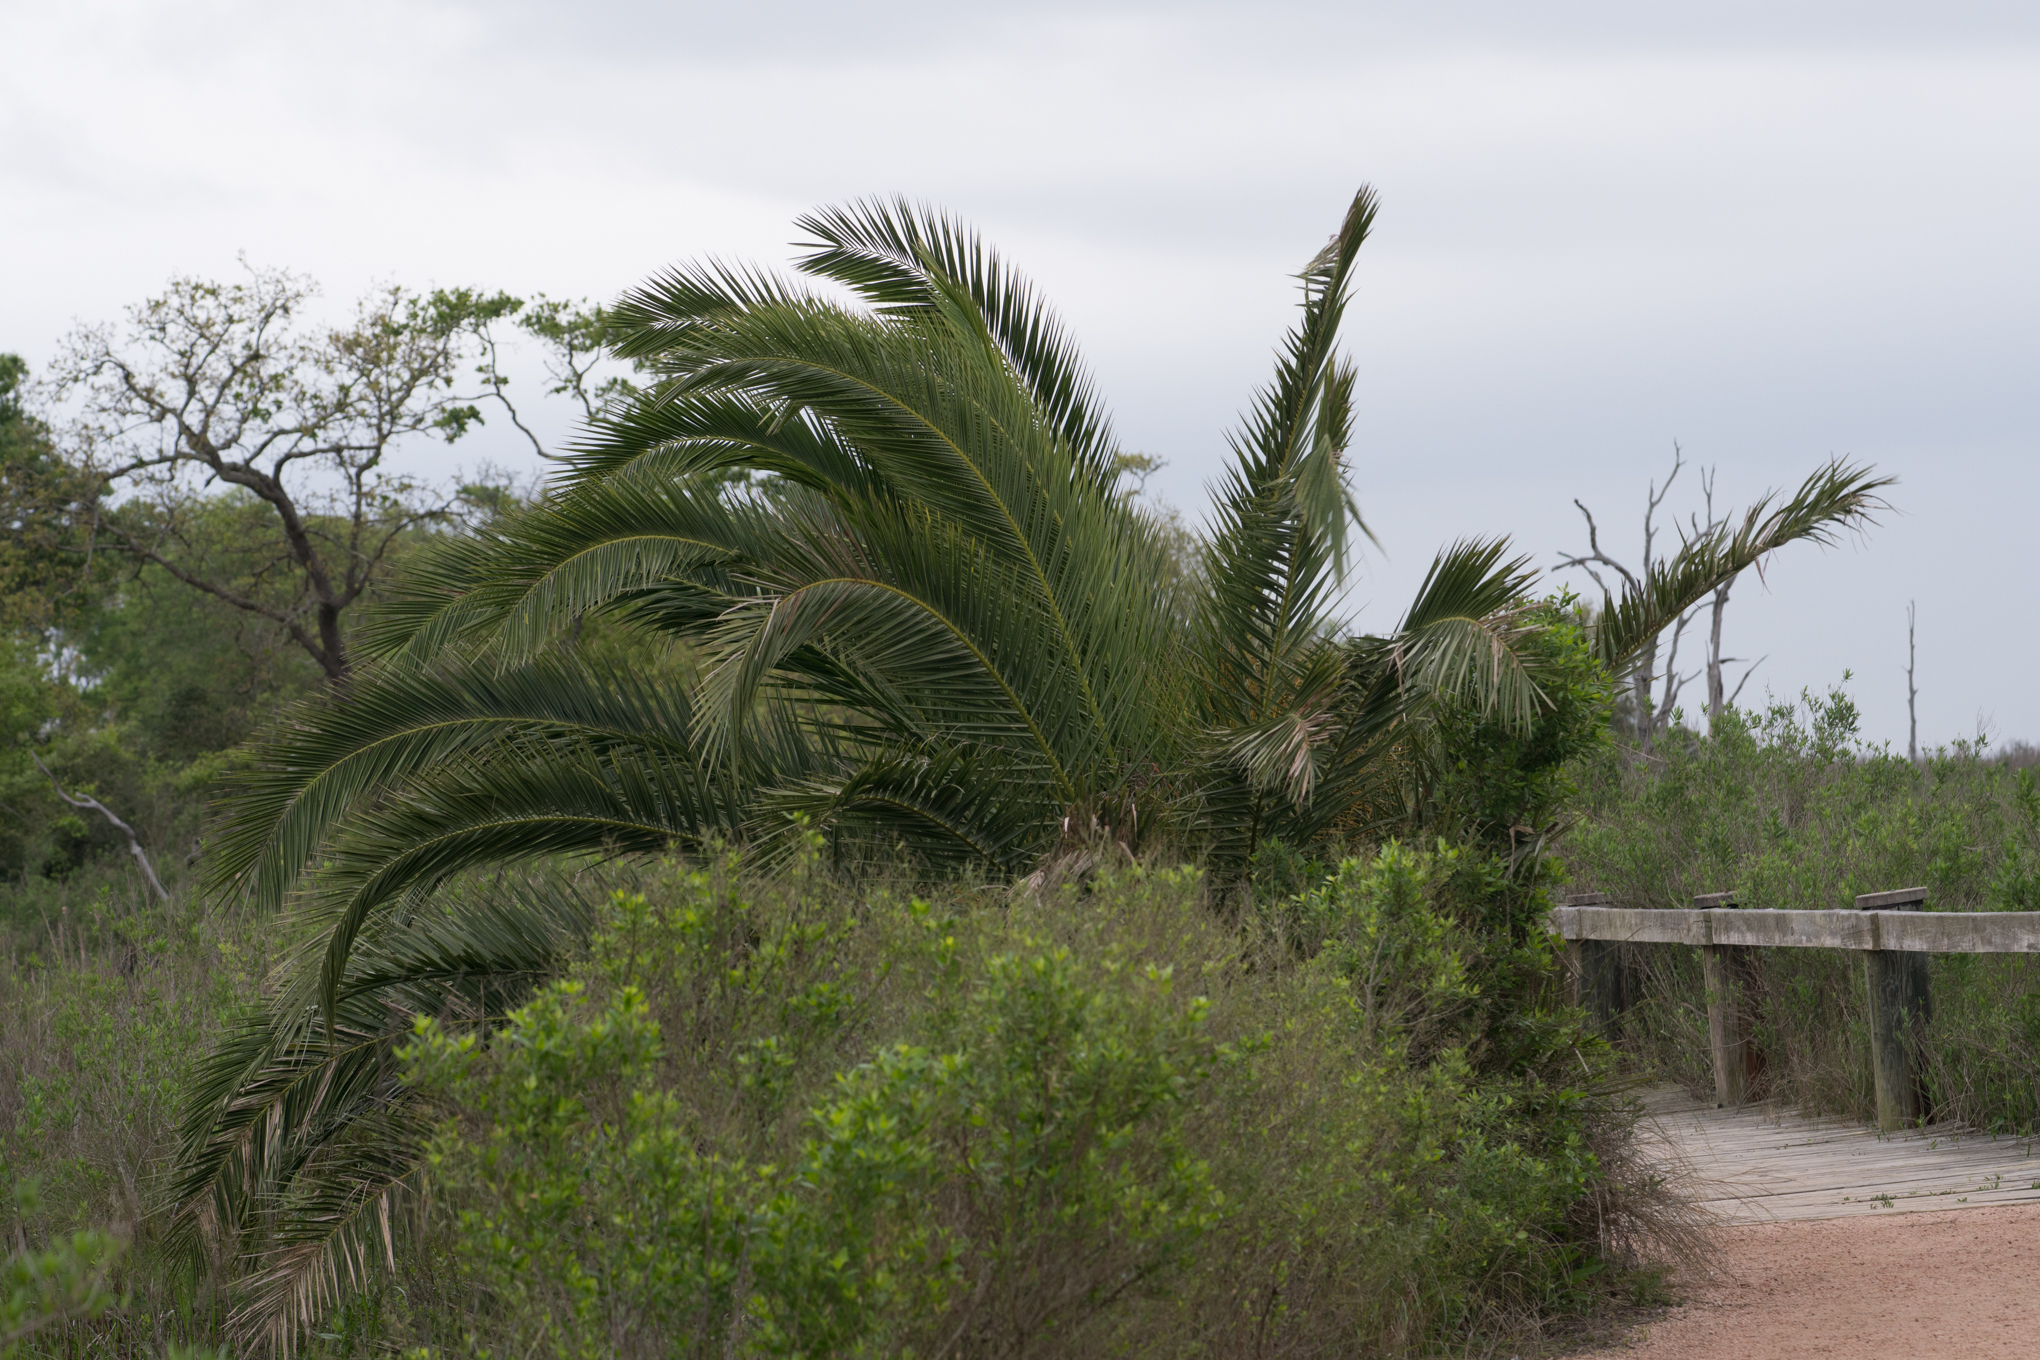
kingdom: Plantae
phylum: Tracheophyta
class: Liliopsida
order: Arecales
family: Arecaceae
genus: Phoenix
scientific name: Phoenix canariensis
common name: Canary island date palm
